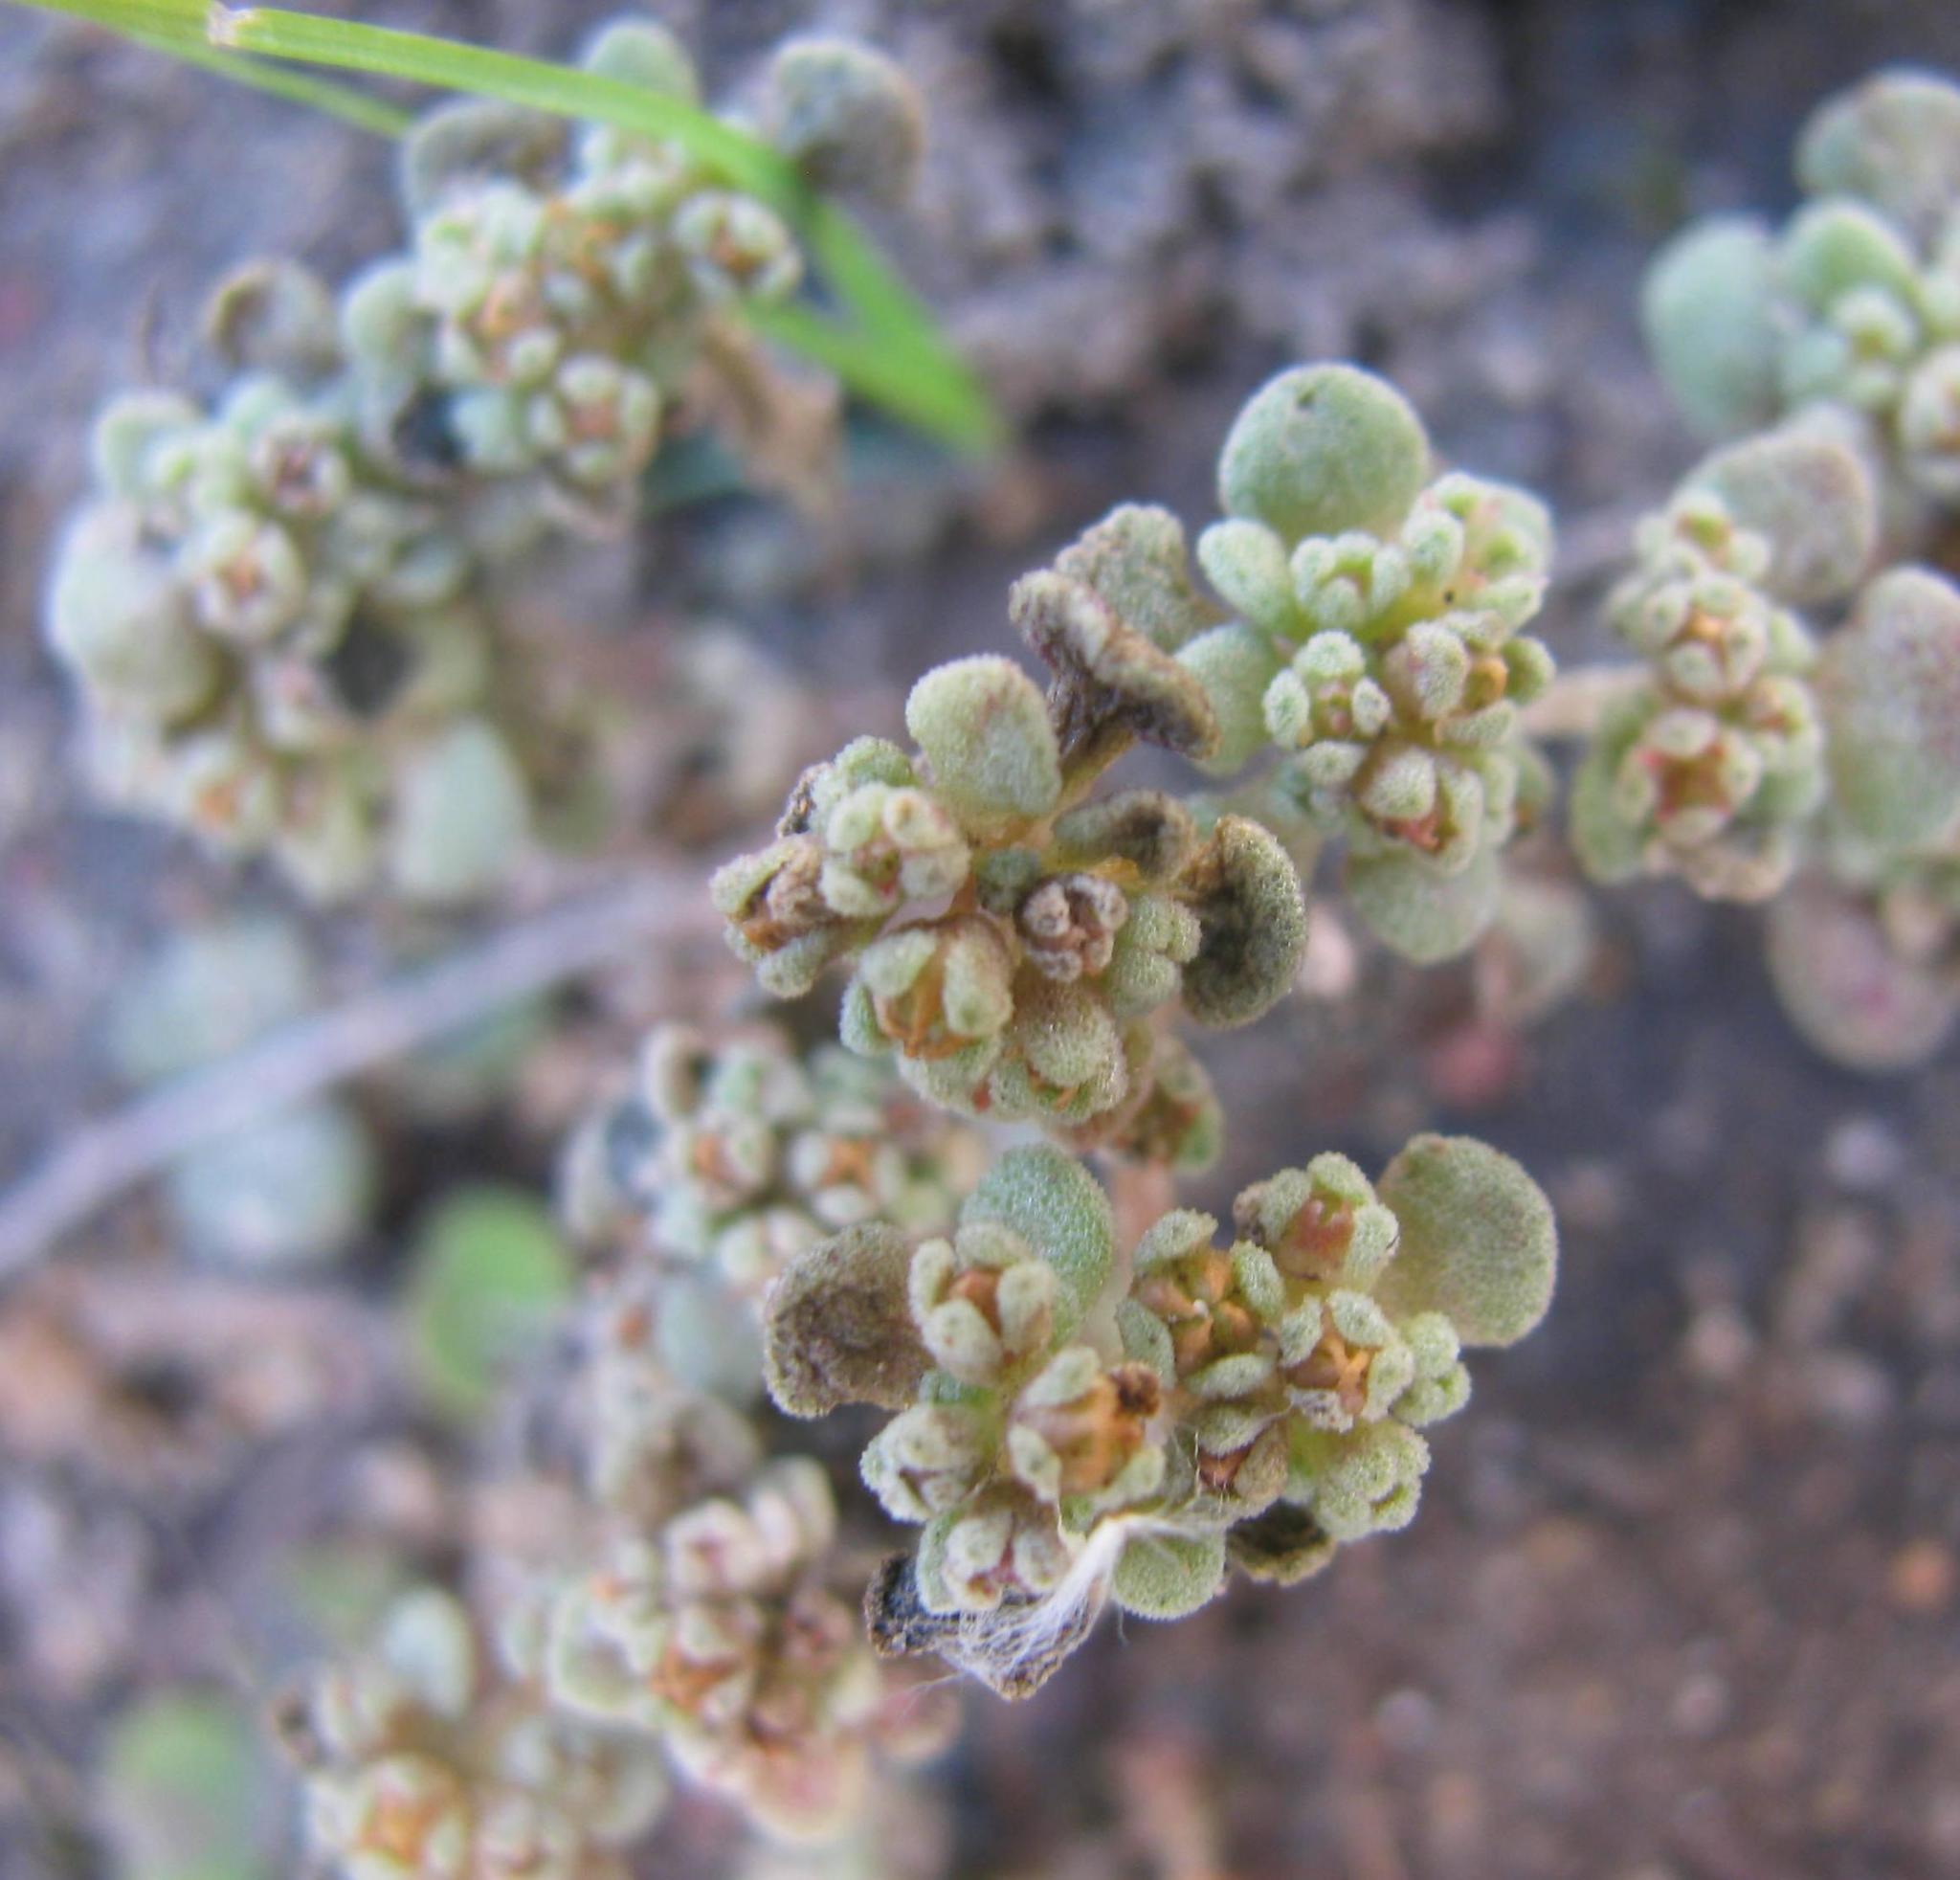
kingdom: Plantae
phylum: Tracheophyta
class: Magnoliopsida
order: Saxifragales
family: Crassulaceae
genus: Crassula
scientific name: Crassula umbellata
